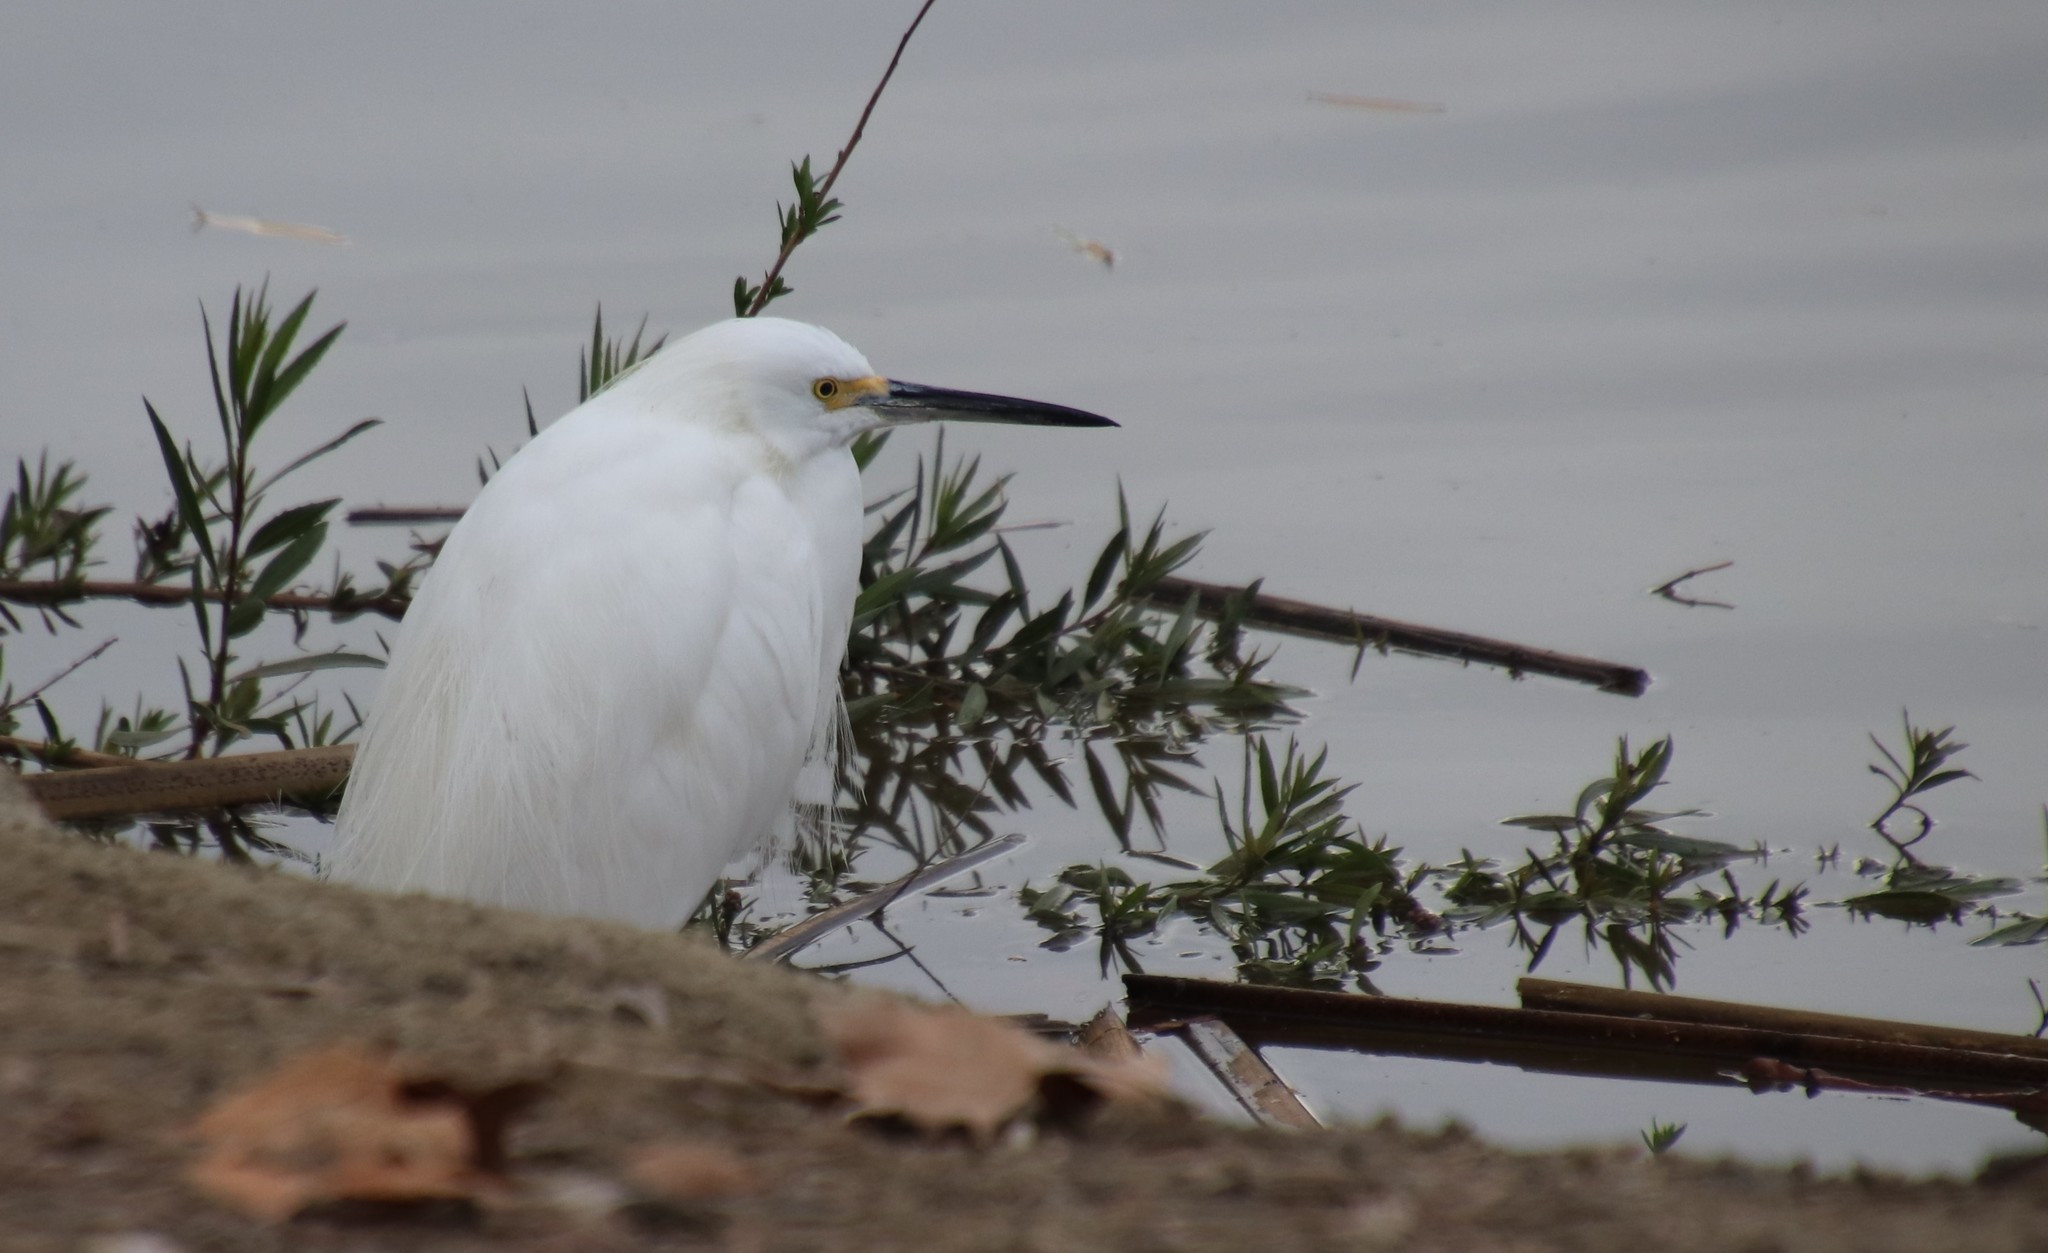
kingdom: Animalia
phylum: Chordata
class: Aves
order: Pelecaniformes
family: Ardeidae
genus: Egretta
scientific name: Egretta thula
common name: Snowy egret
